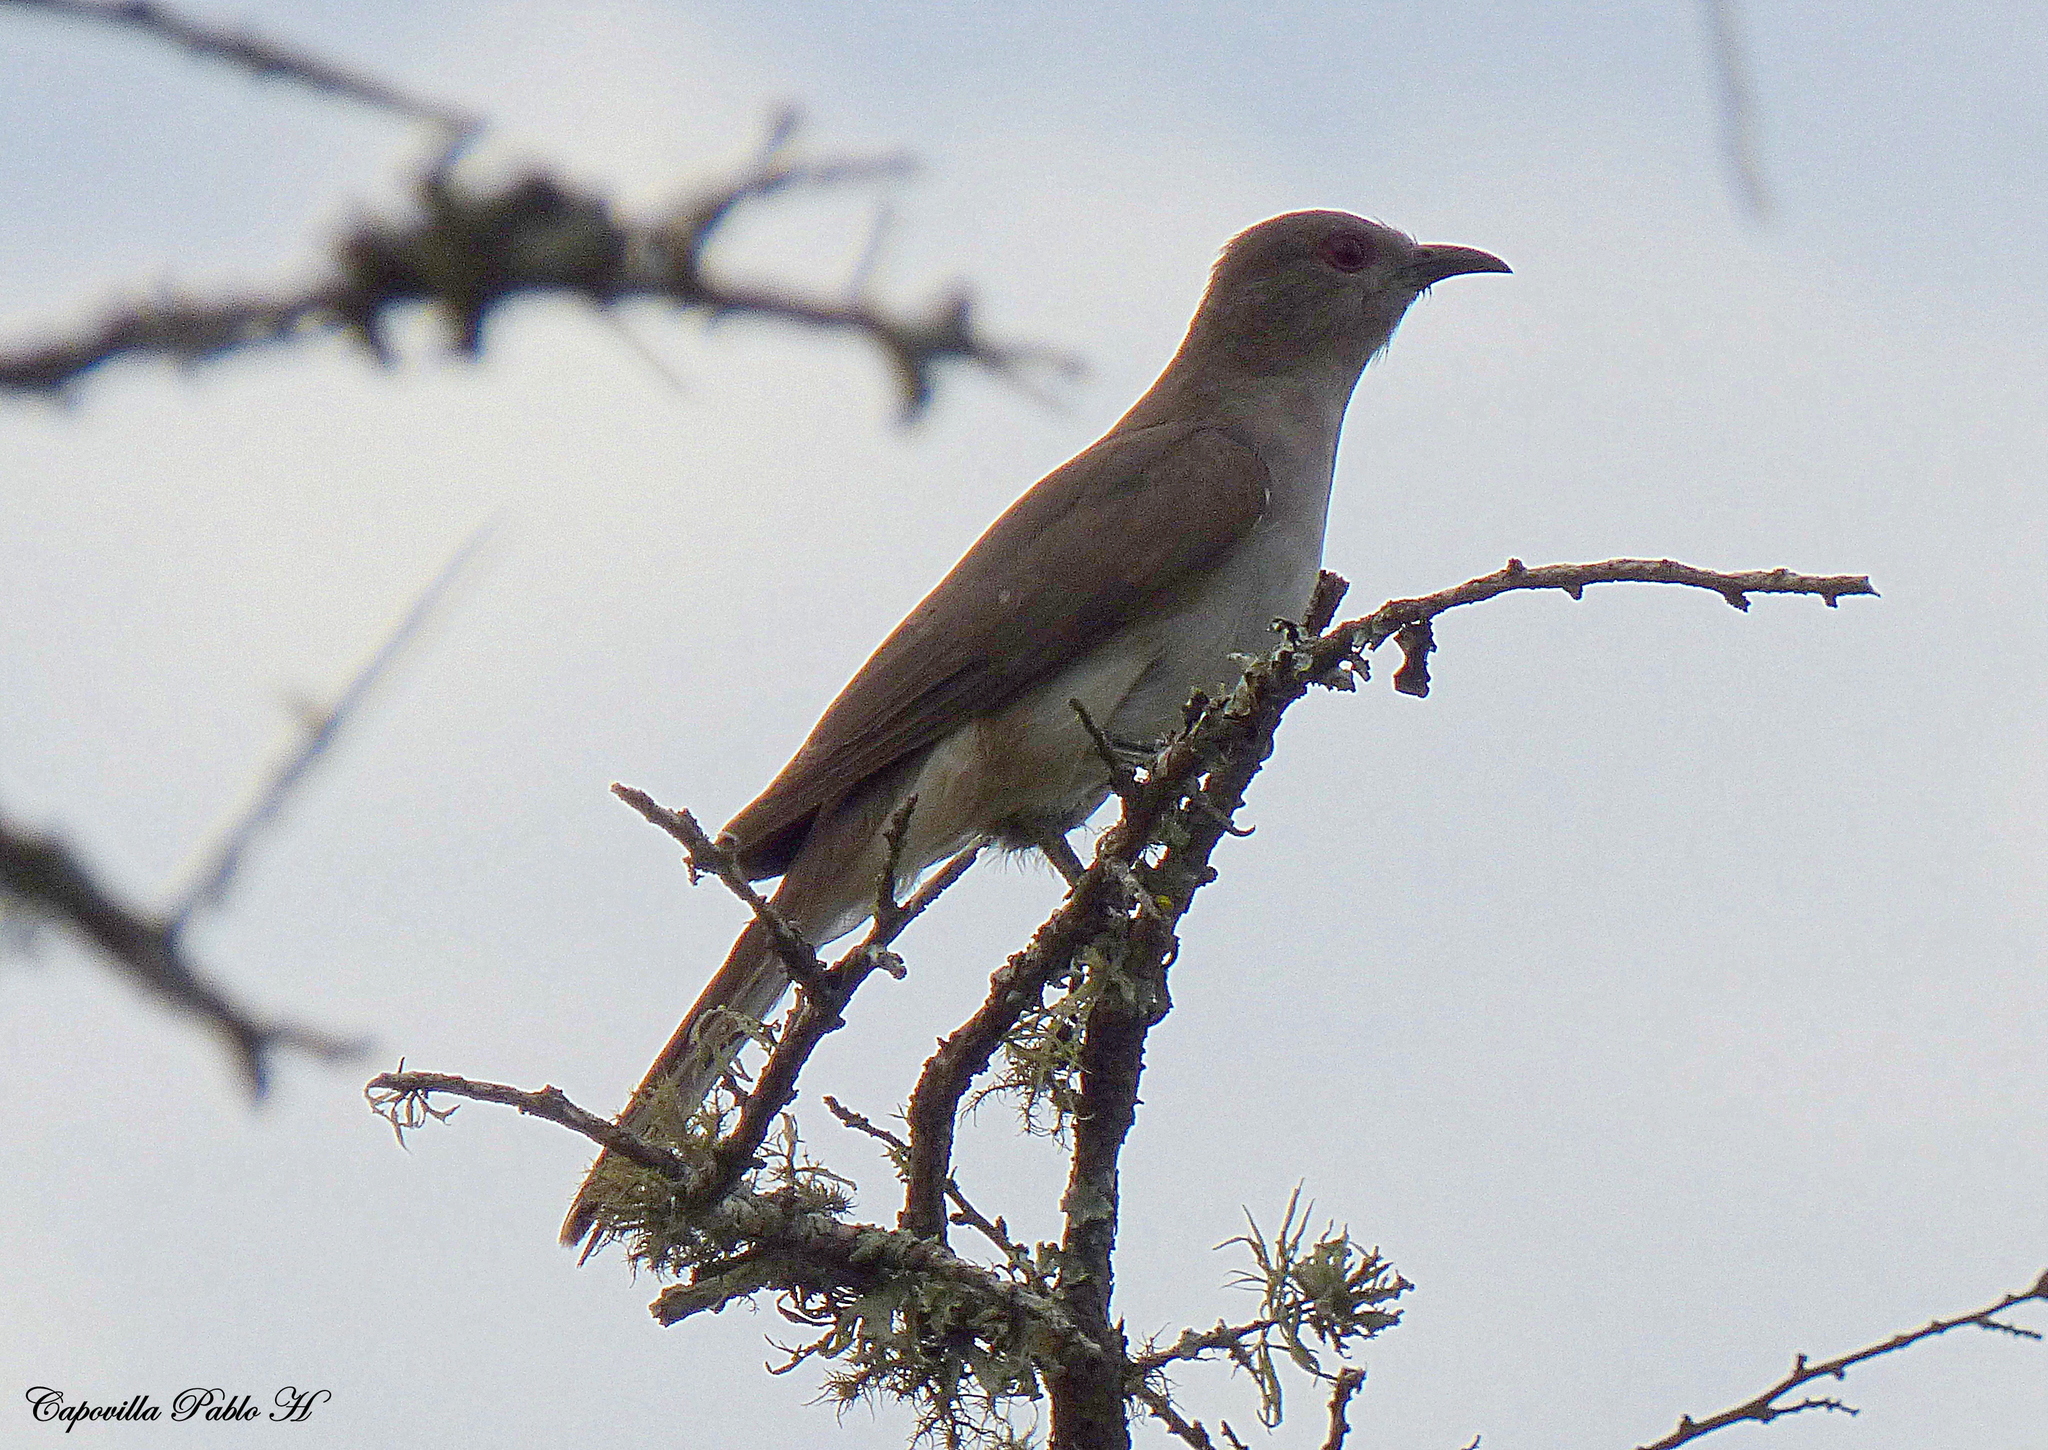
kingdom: Animalia
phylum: Chordata
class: Aves
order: Cuculiformes
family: Cuculidae
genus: Coccyzus
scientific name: Coccyzus cinereus
